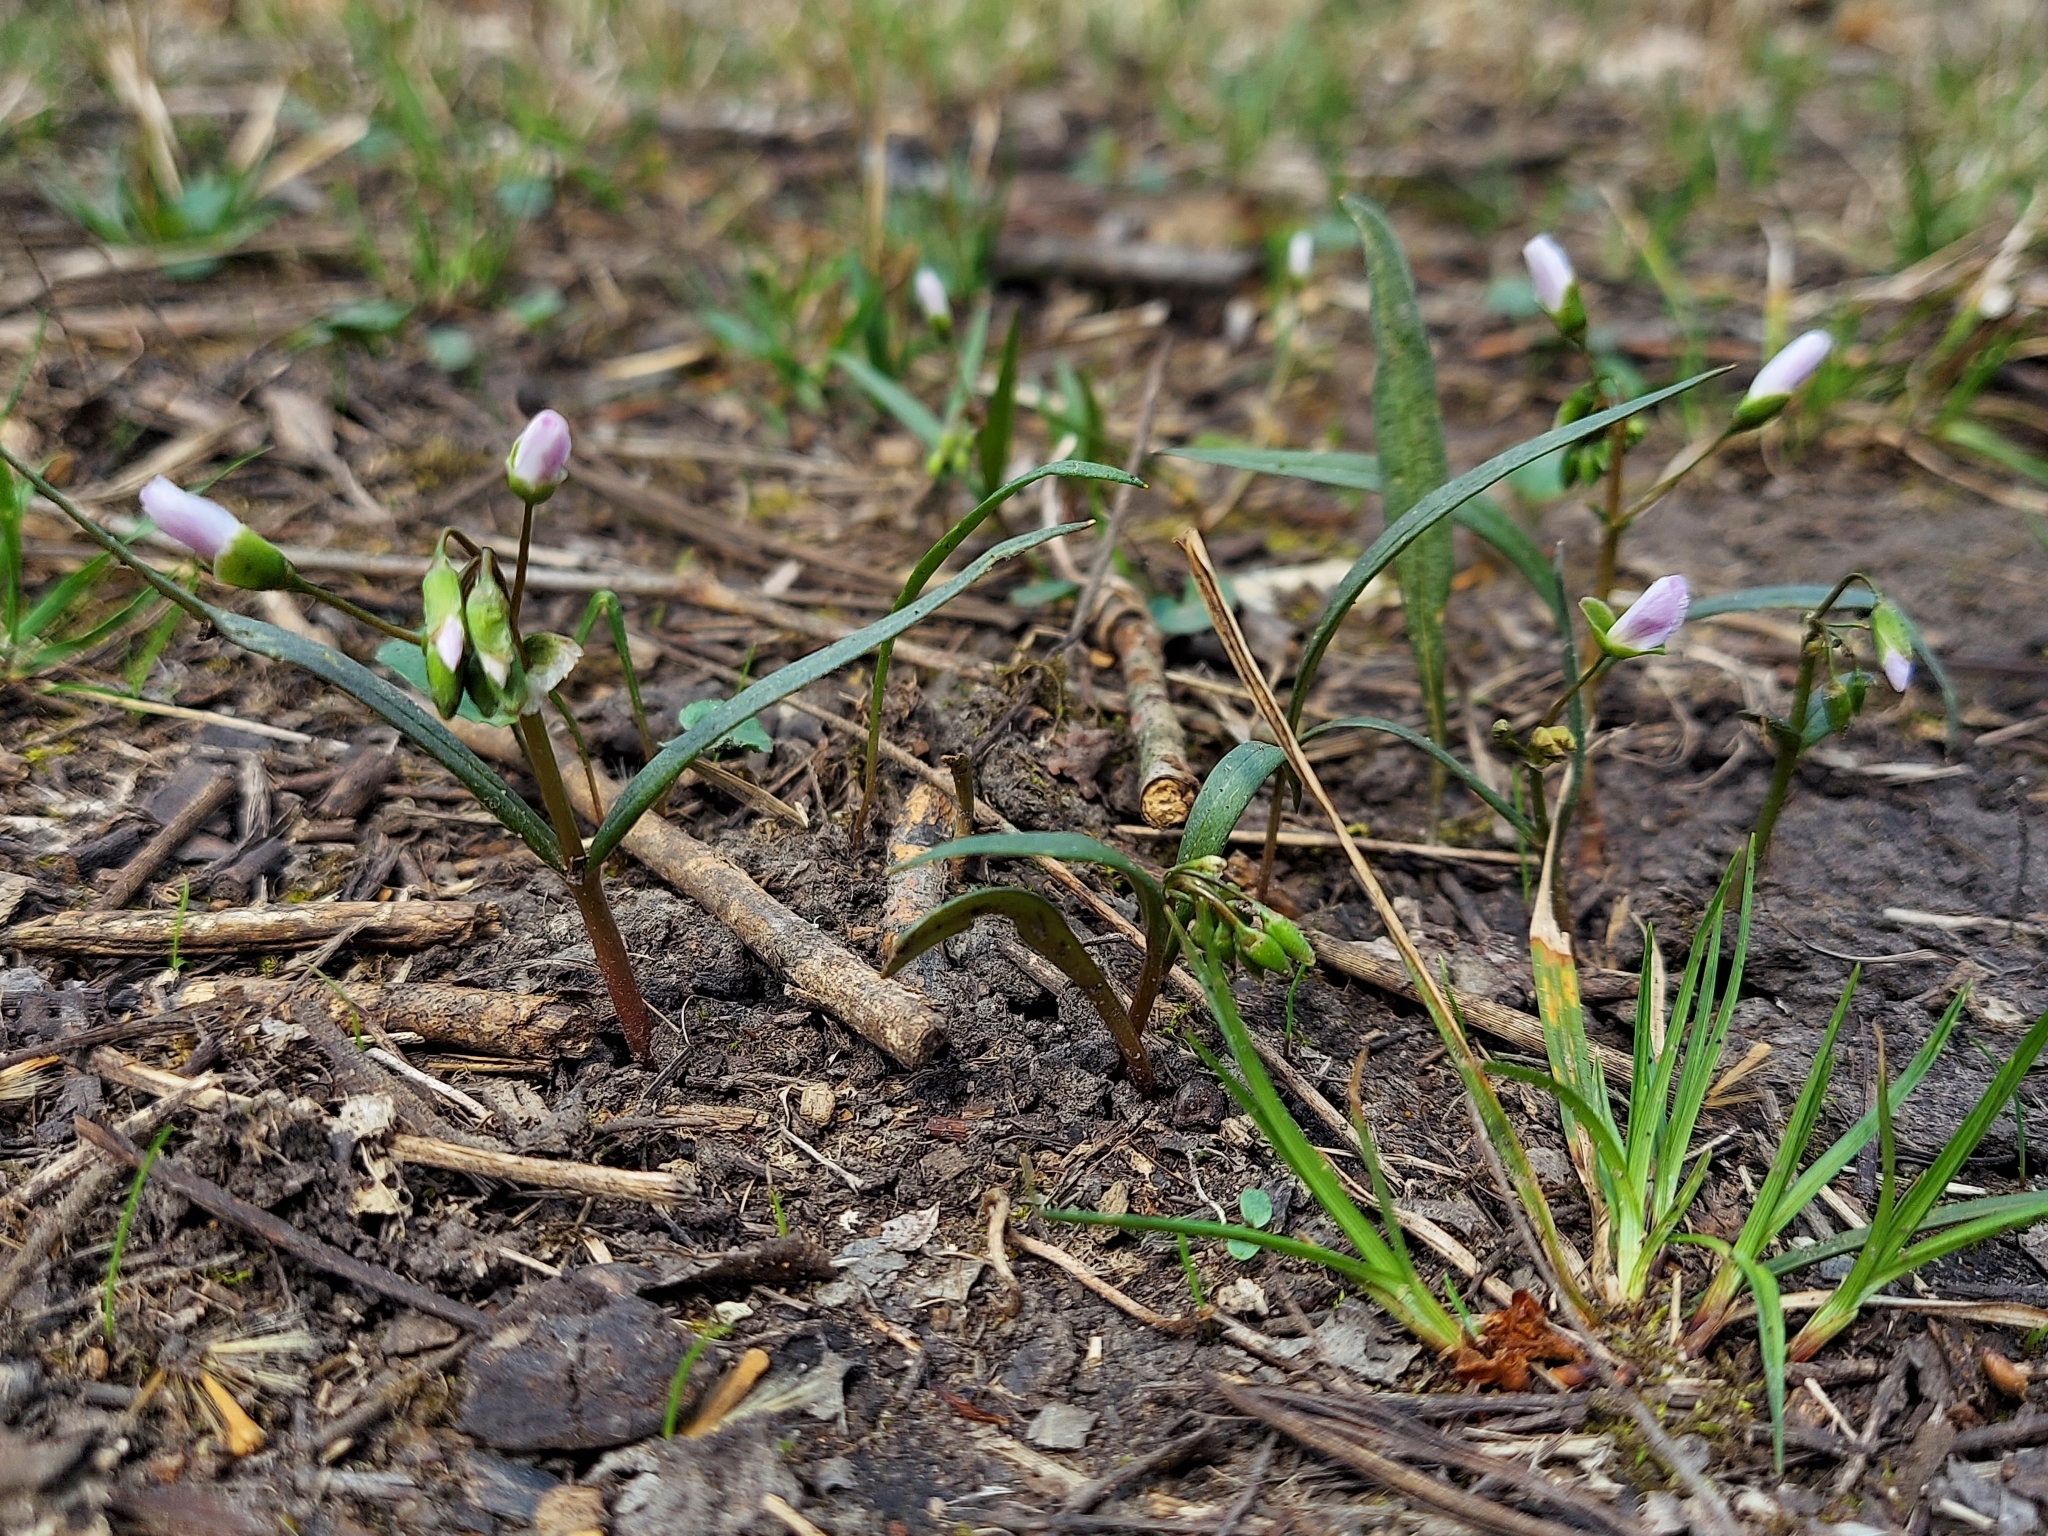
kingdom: Plantae
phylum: Tracheophyta
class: Magnoliopsida
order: Caryophyllales
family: Montiaceae
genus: Claytonia
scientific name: Claytonia virginica
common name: Virginia springbeauty
